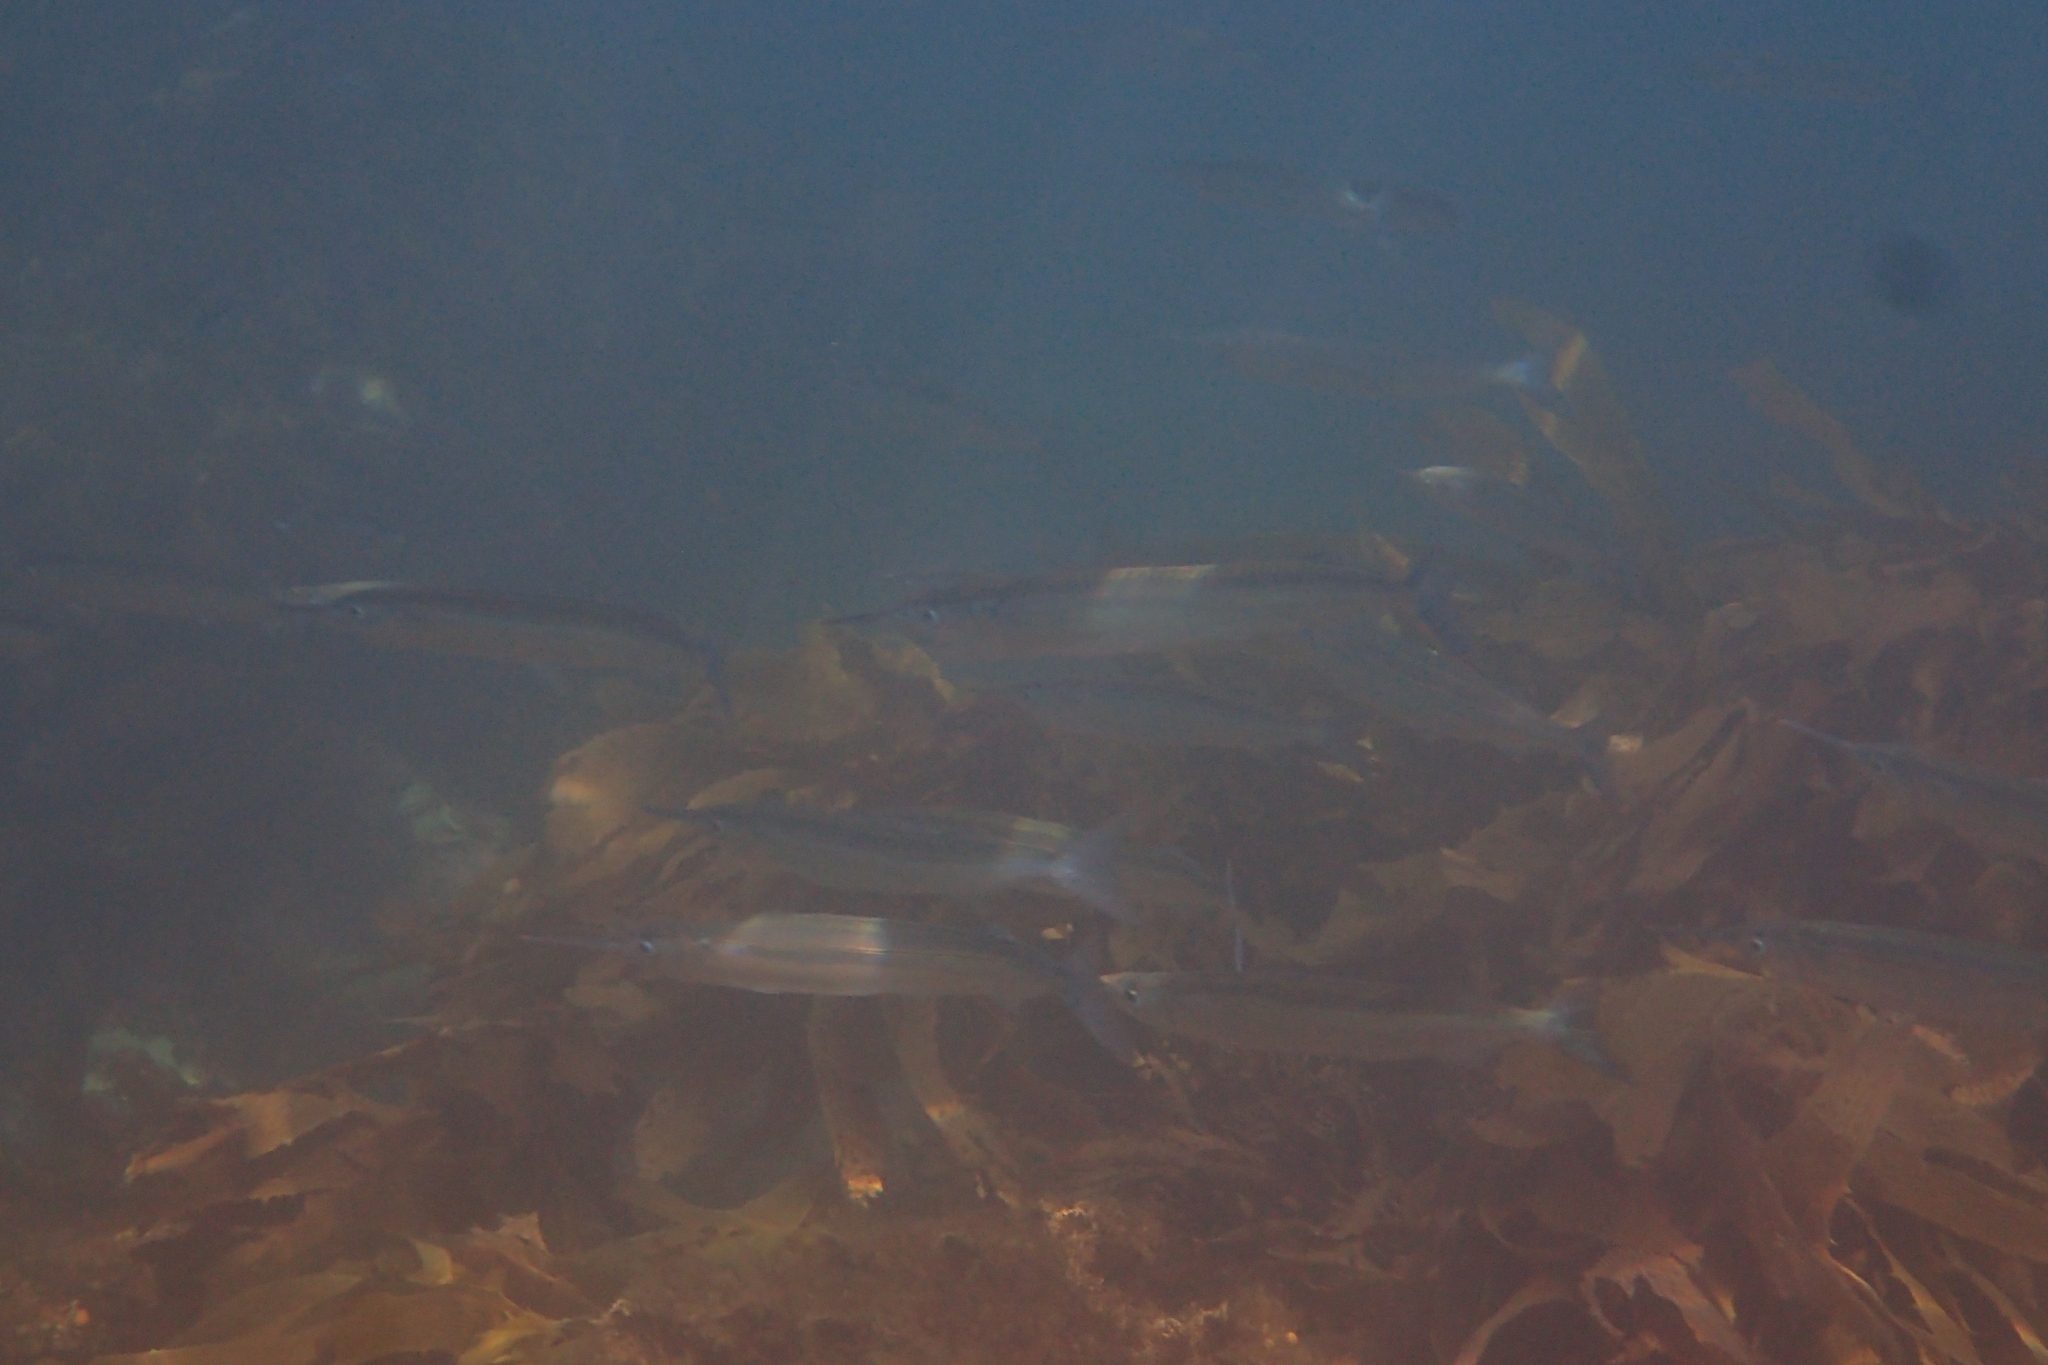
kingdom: Animalia
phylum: Chordata
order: Beloniformes
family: Hemiramphidae
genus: Hyporhamphus
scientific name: Hyporhamphus ihi
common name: Garfish
